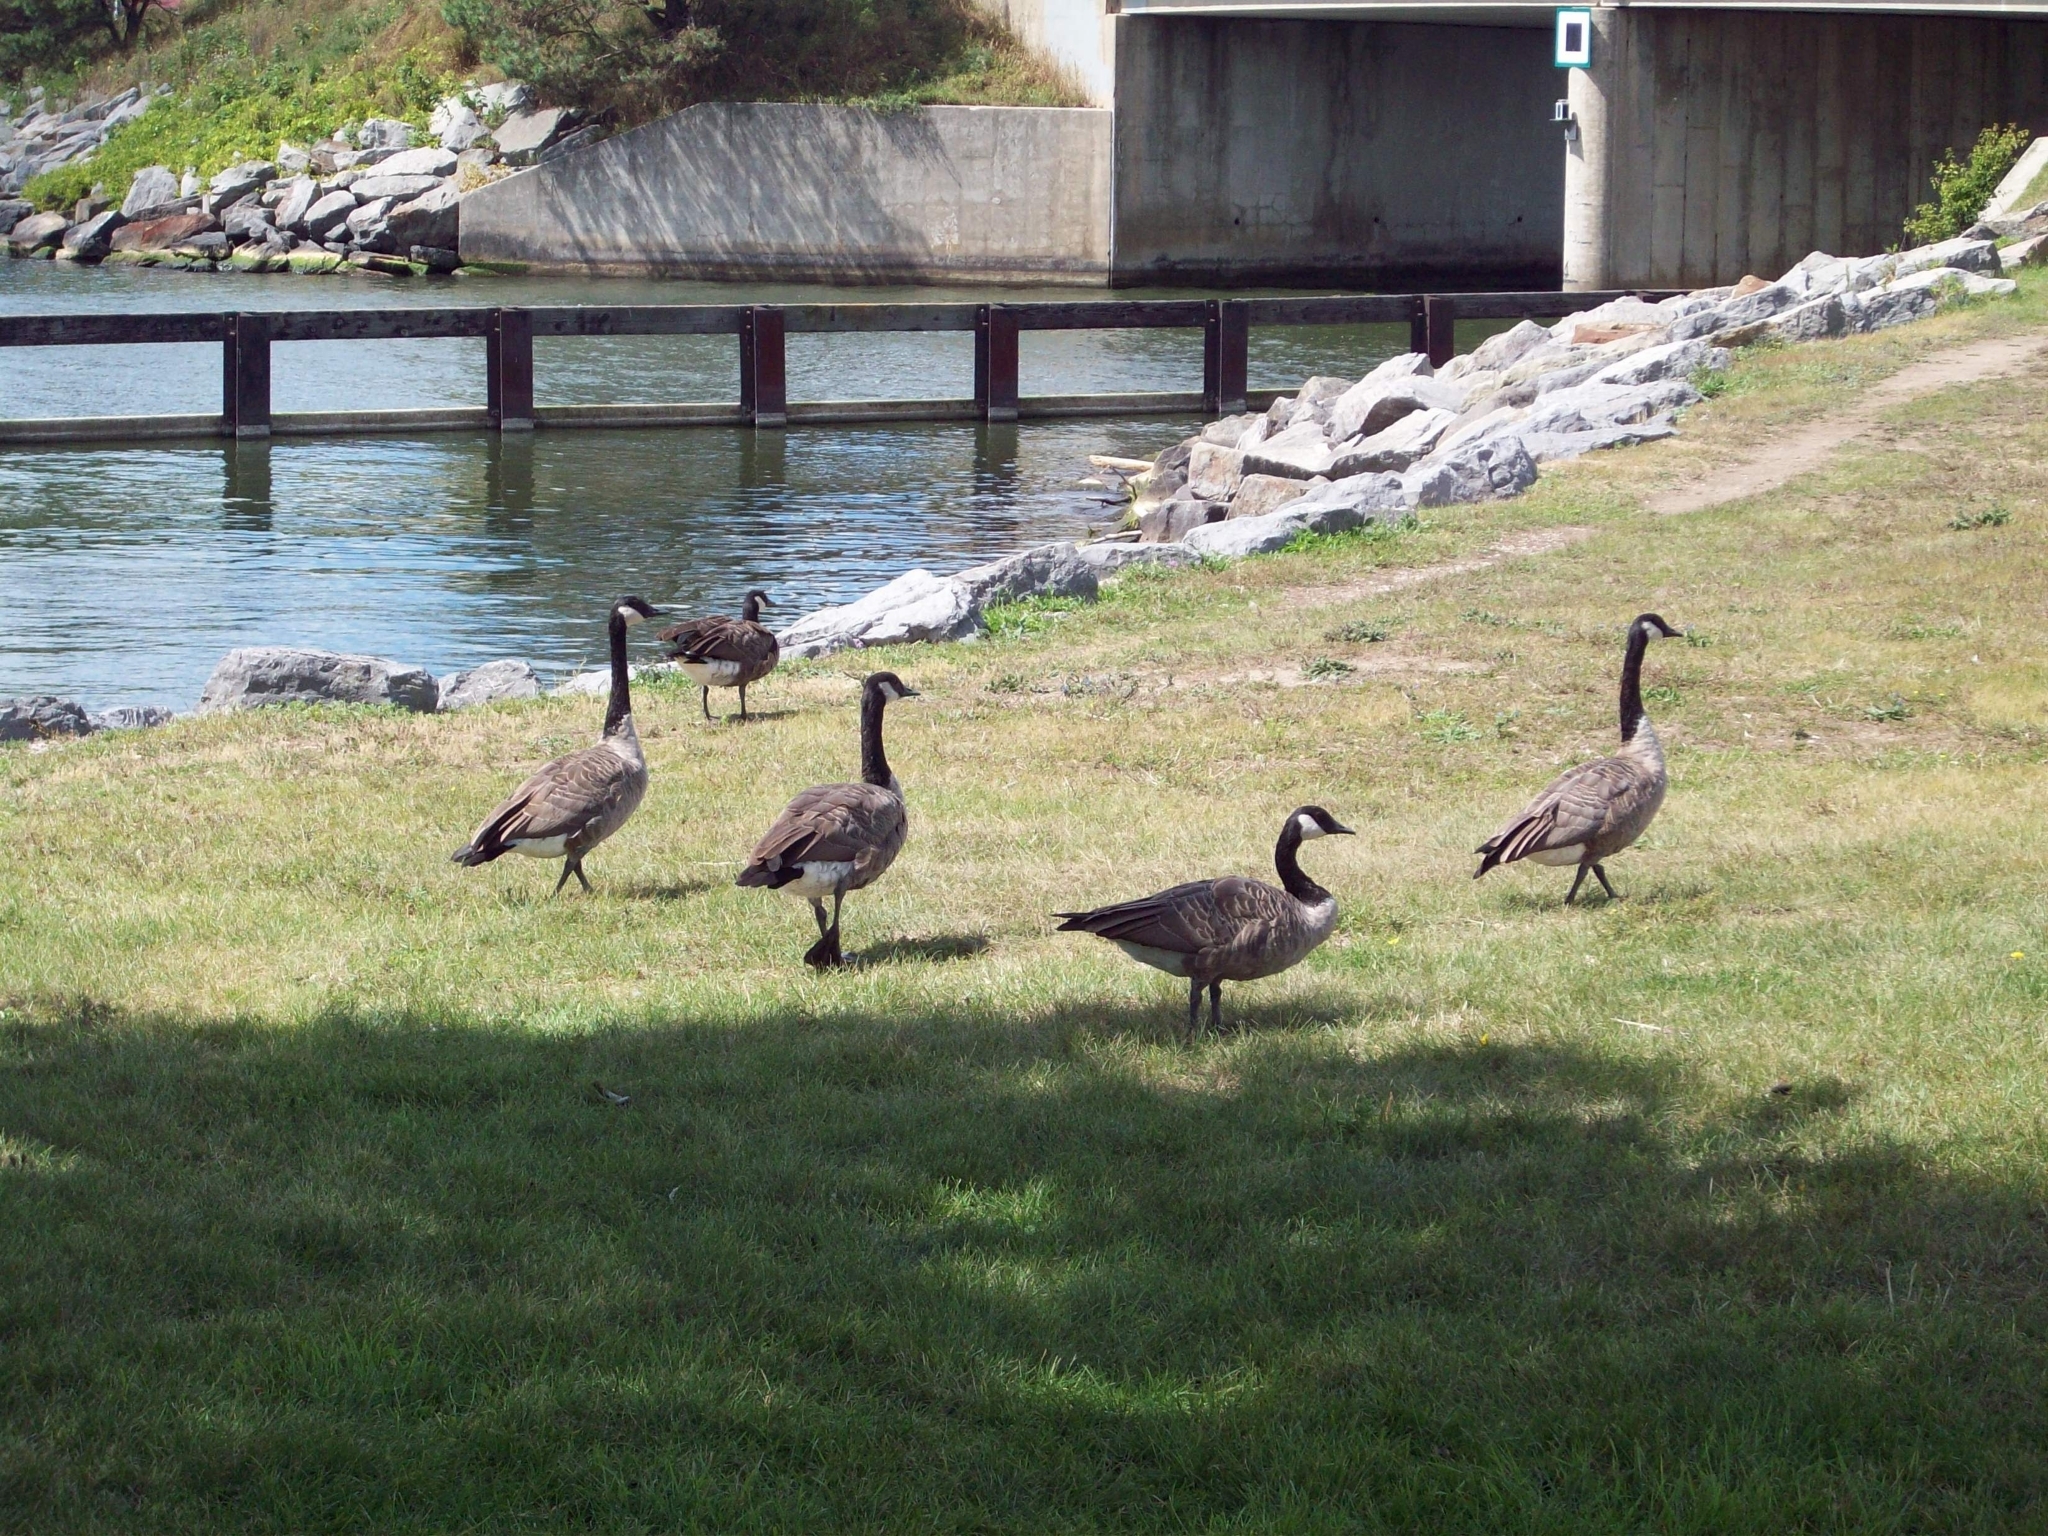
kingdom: Animalia
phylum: Chordata
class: Aves
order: Anseriformes
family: Anatidae
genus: Branta
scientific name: Branta canadensis
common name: Canada goose
